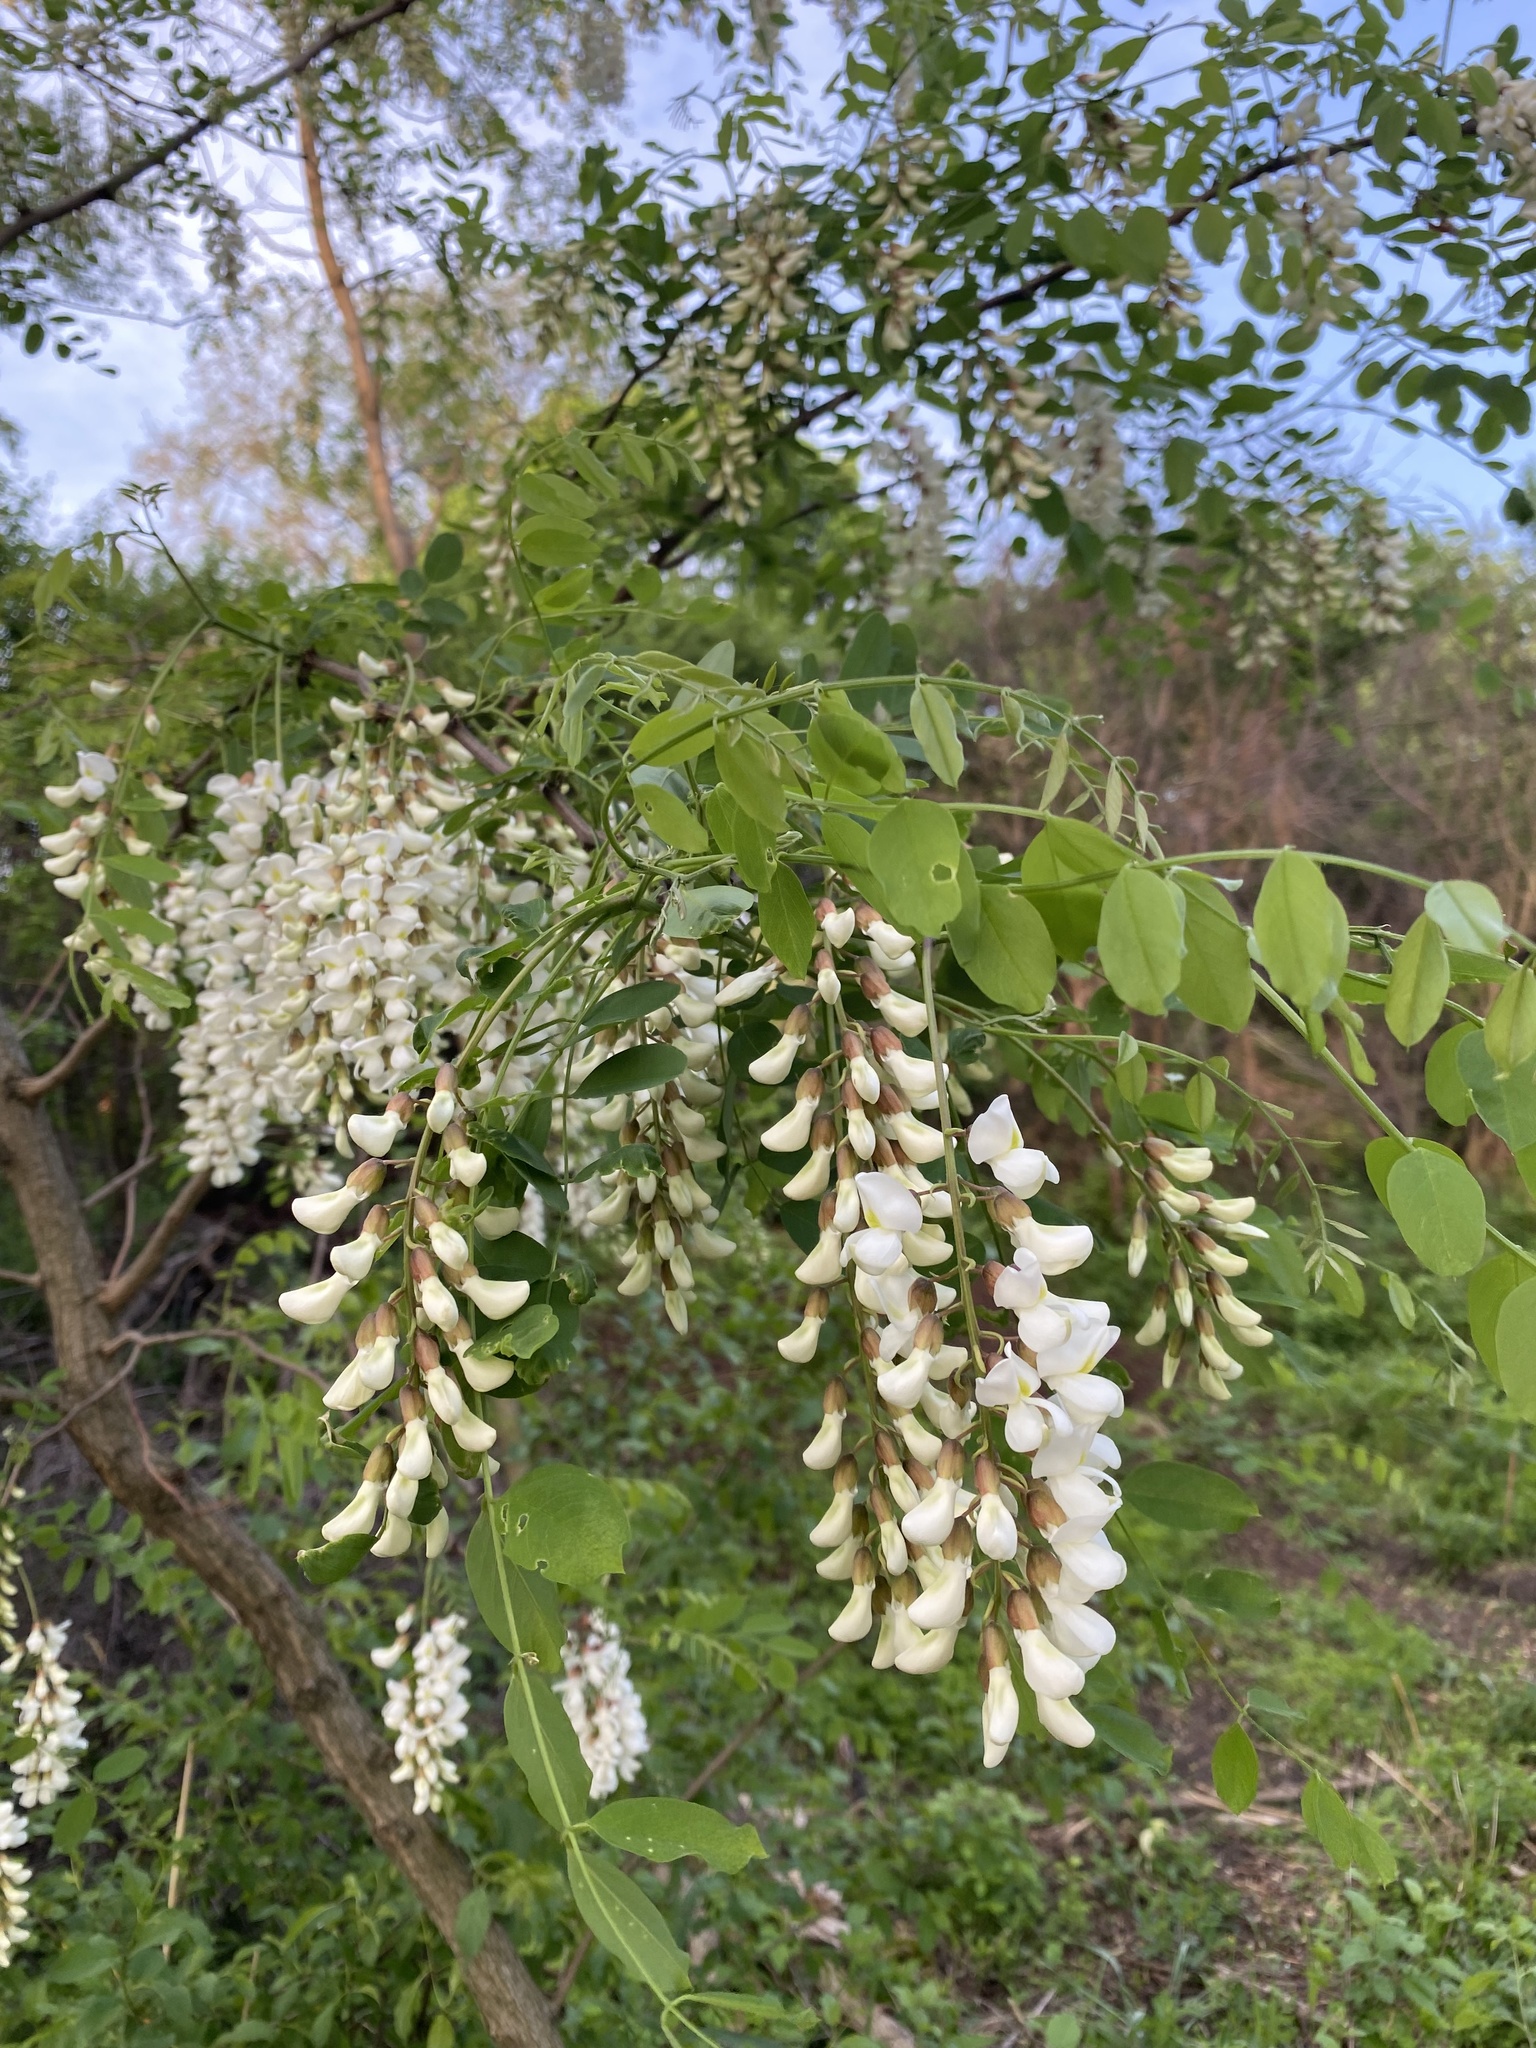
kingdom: Plantae
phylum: Tracheophyta
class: Magnoliopsida
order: Fabales
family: Fabaceae
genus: Robinia
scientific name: Robinia pseudoacacia
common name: Black locust
